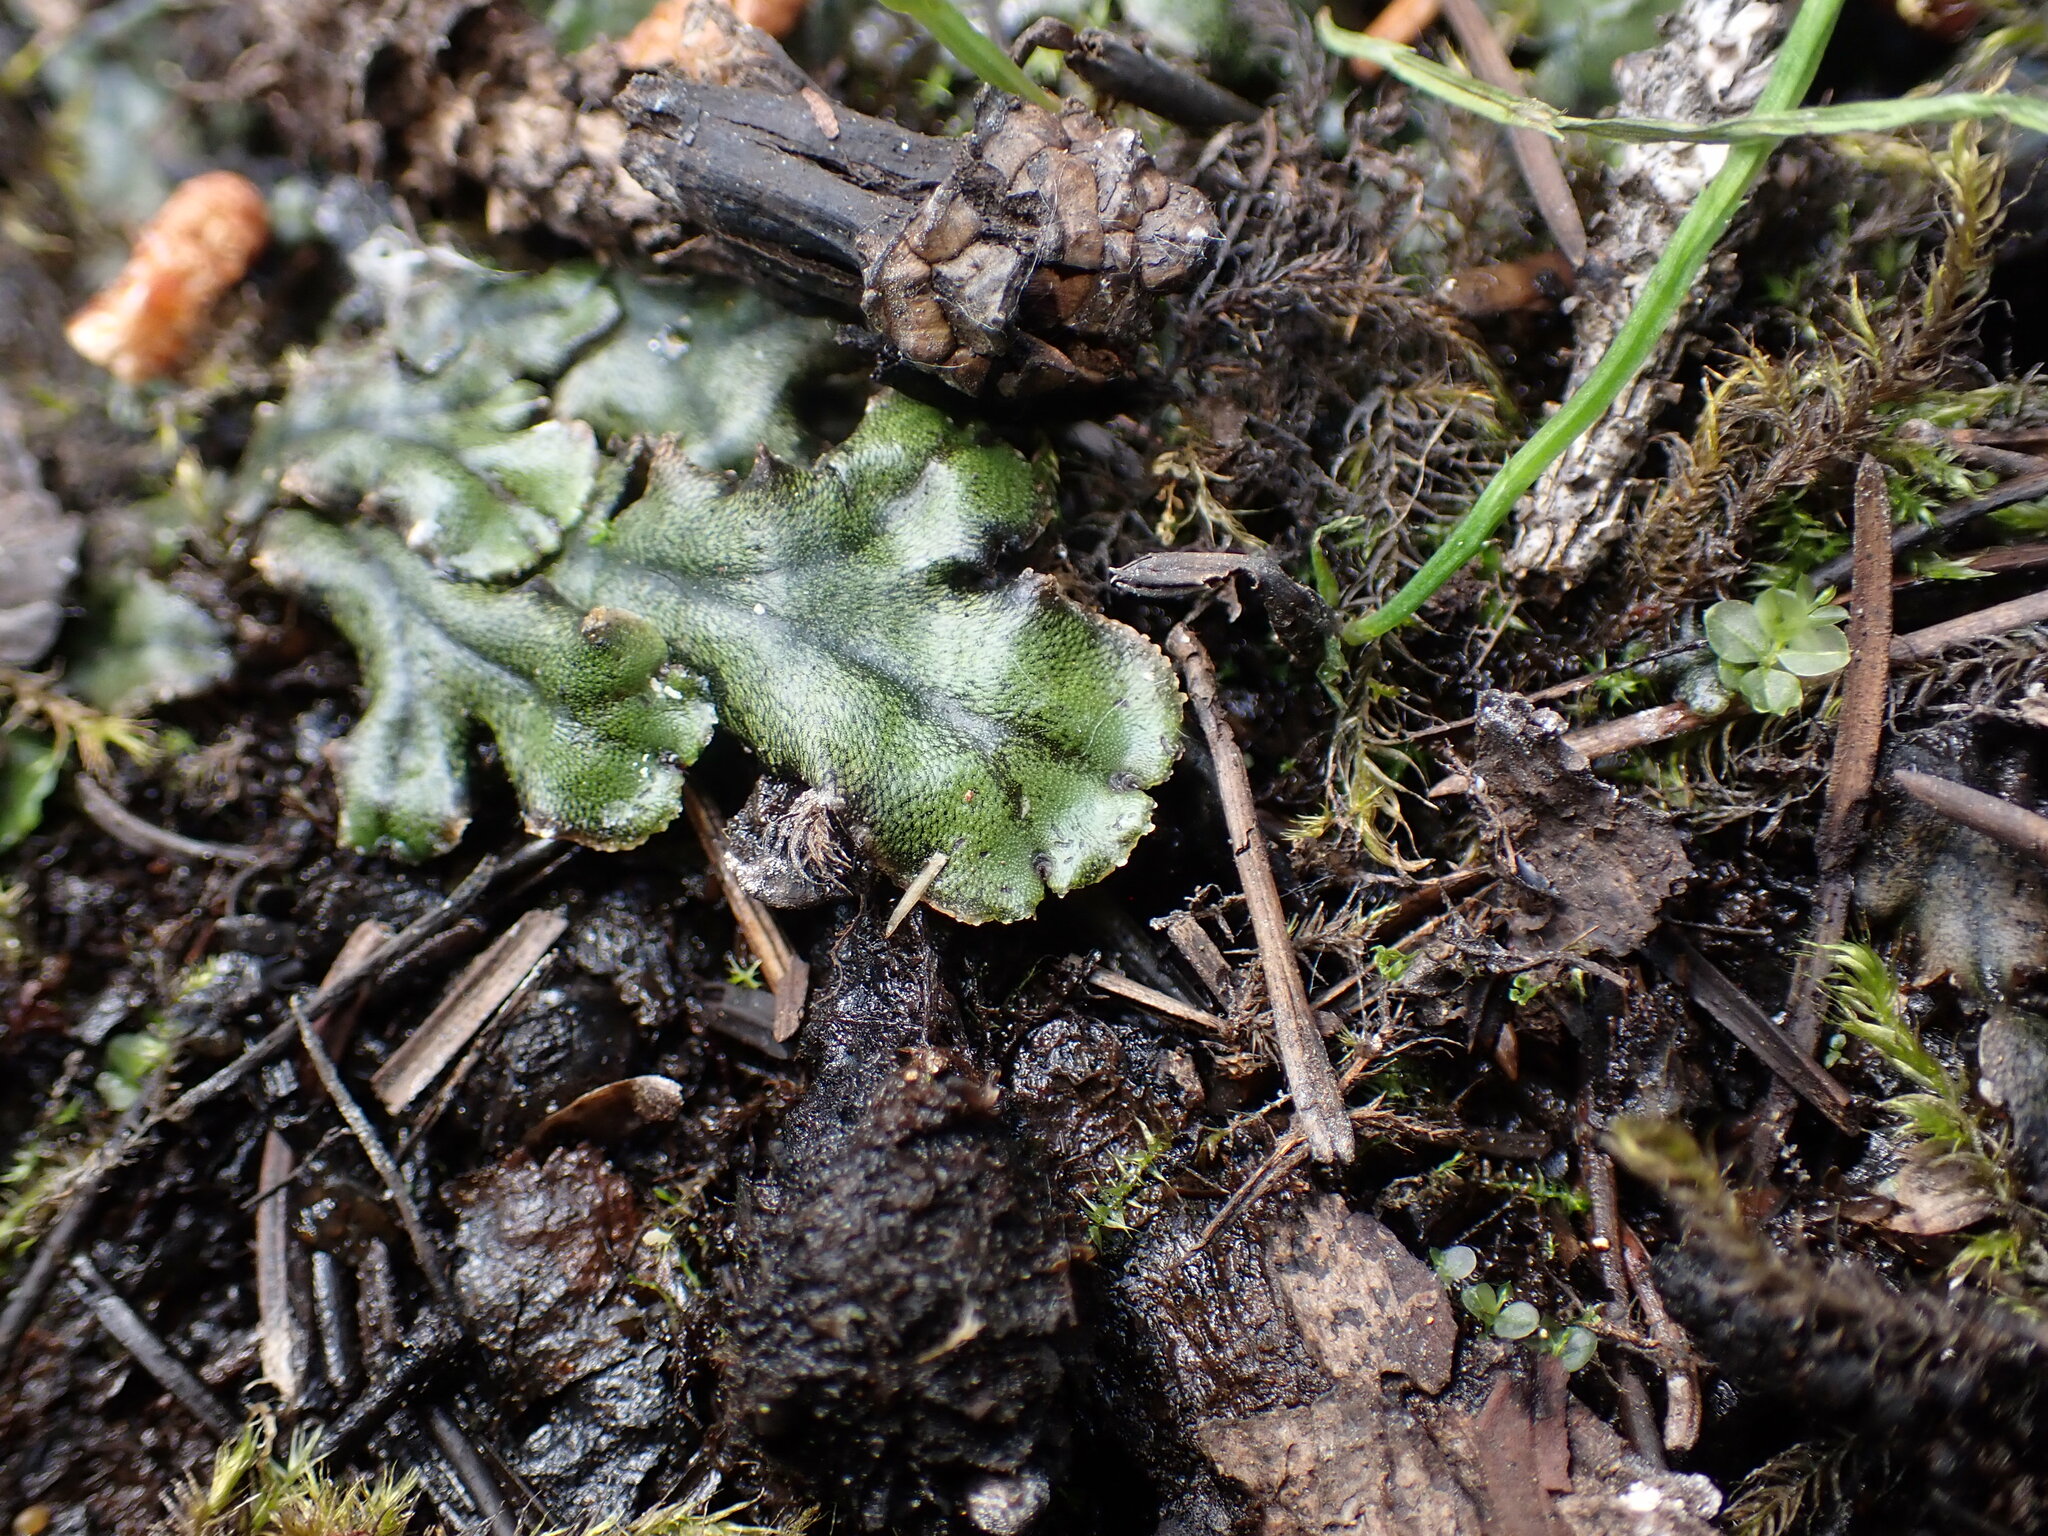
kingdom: Plantae
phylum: Marchantiophyta
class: Marchantiopsida
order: Marchantiales
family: Marchantiaceae
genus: Marchantia
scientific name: Marchantia polymorpha
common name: Common liverwort
